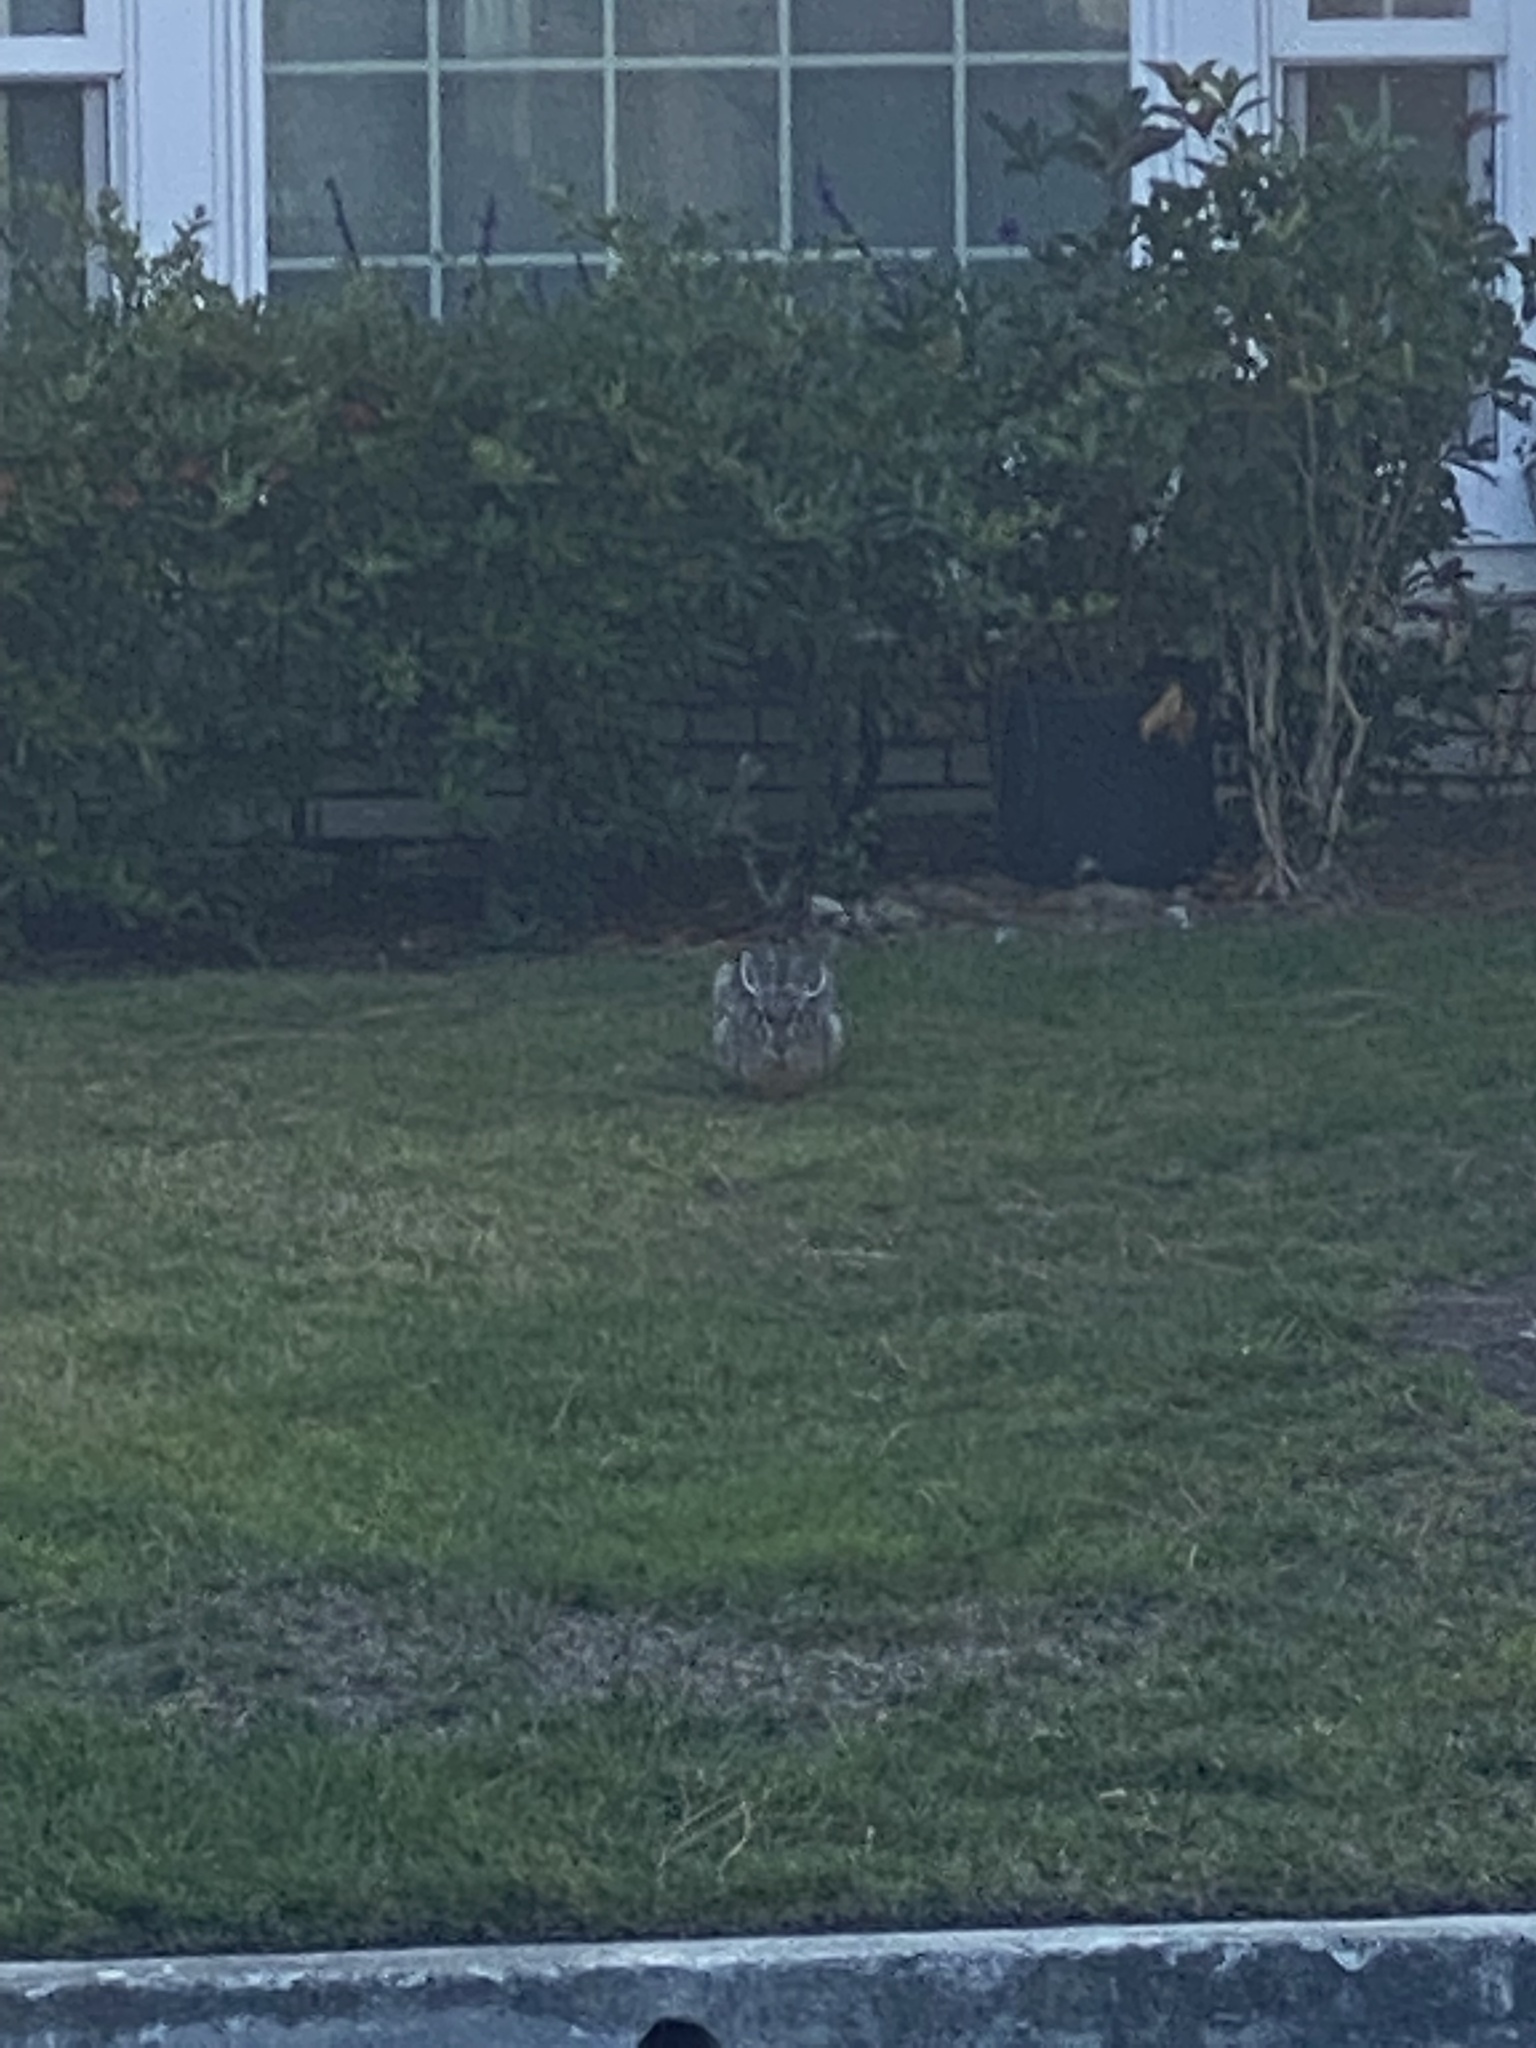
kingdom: Animalia
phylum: Chordata
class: Mammalia
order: Lagomorpha
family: Leporidae
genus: Lepus
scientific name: Lepus californicus
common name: Black-tailed jackrabbit
